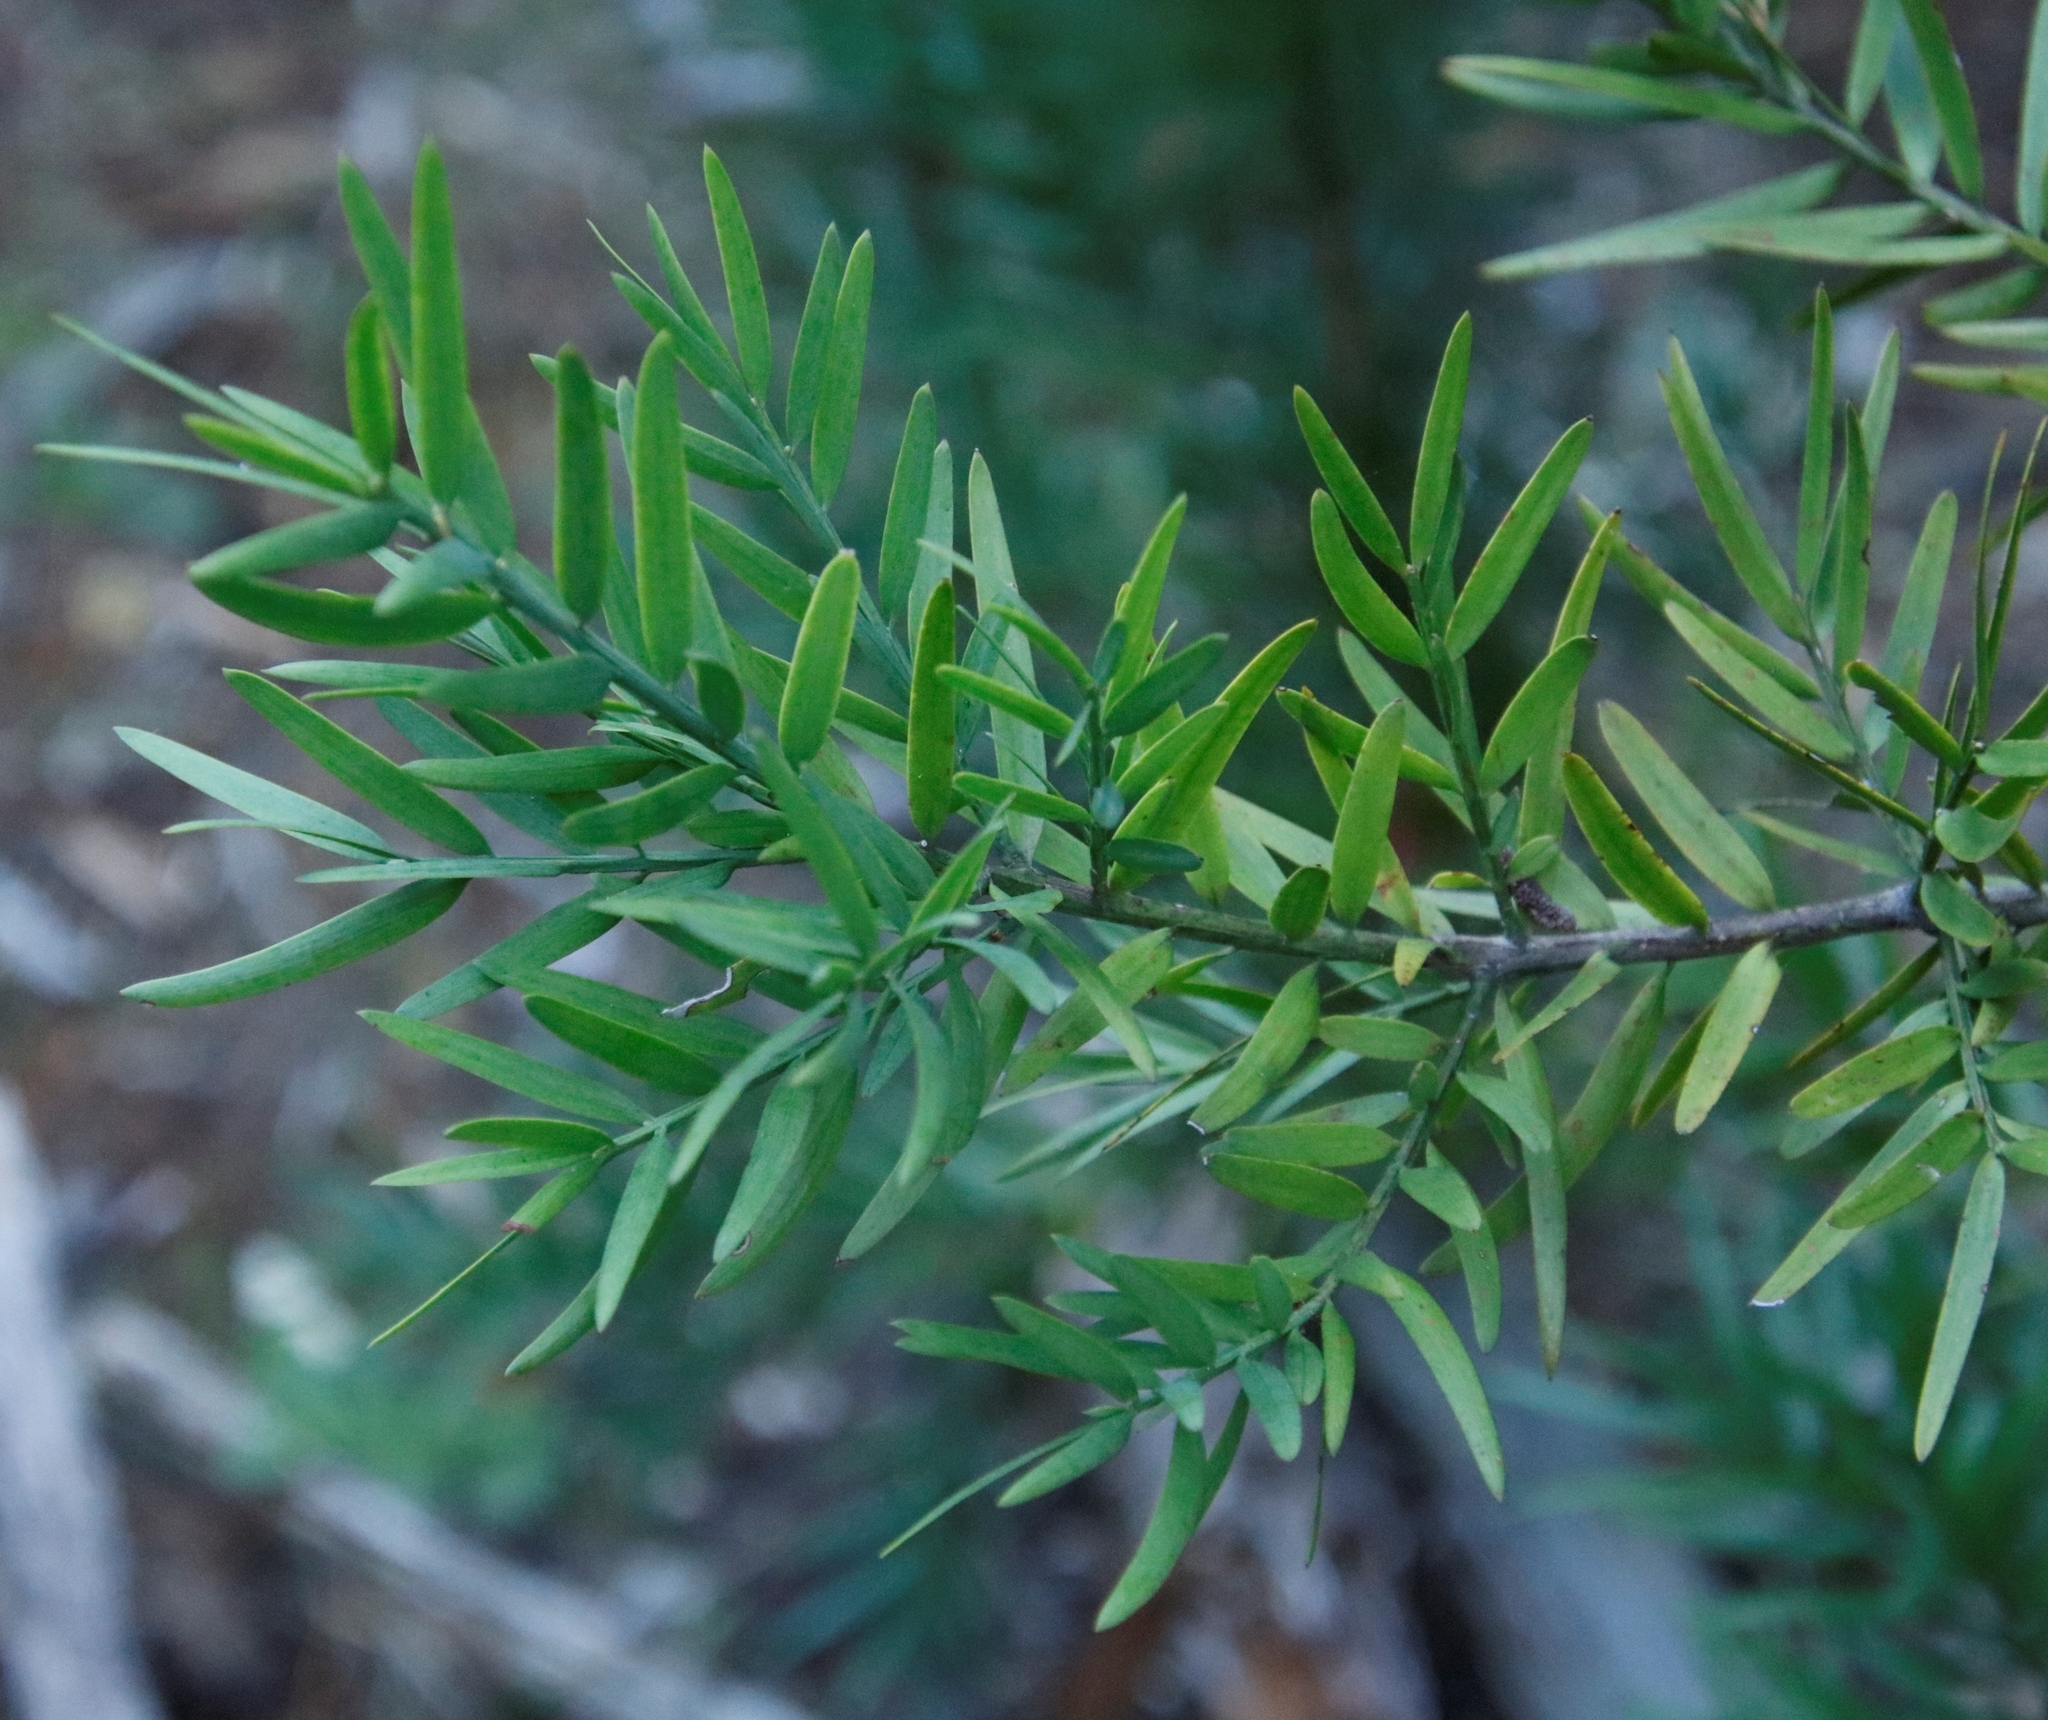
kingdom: Plantae
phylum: Tracheophyta
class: Pinopsida
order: Pinales
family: Podocarpaceae
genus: Afrocarpus
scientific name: Afrocarpus falcatus
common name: Bastard yellowwood
